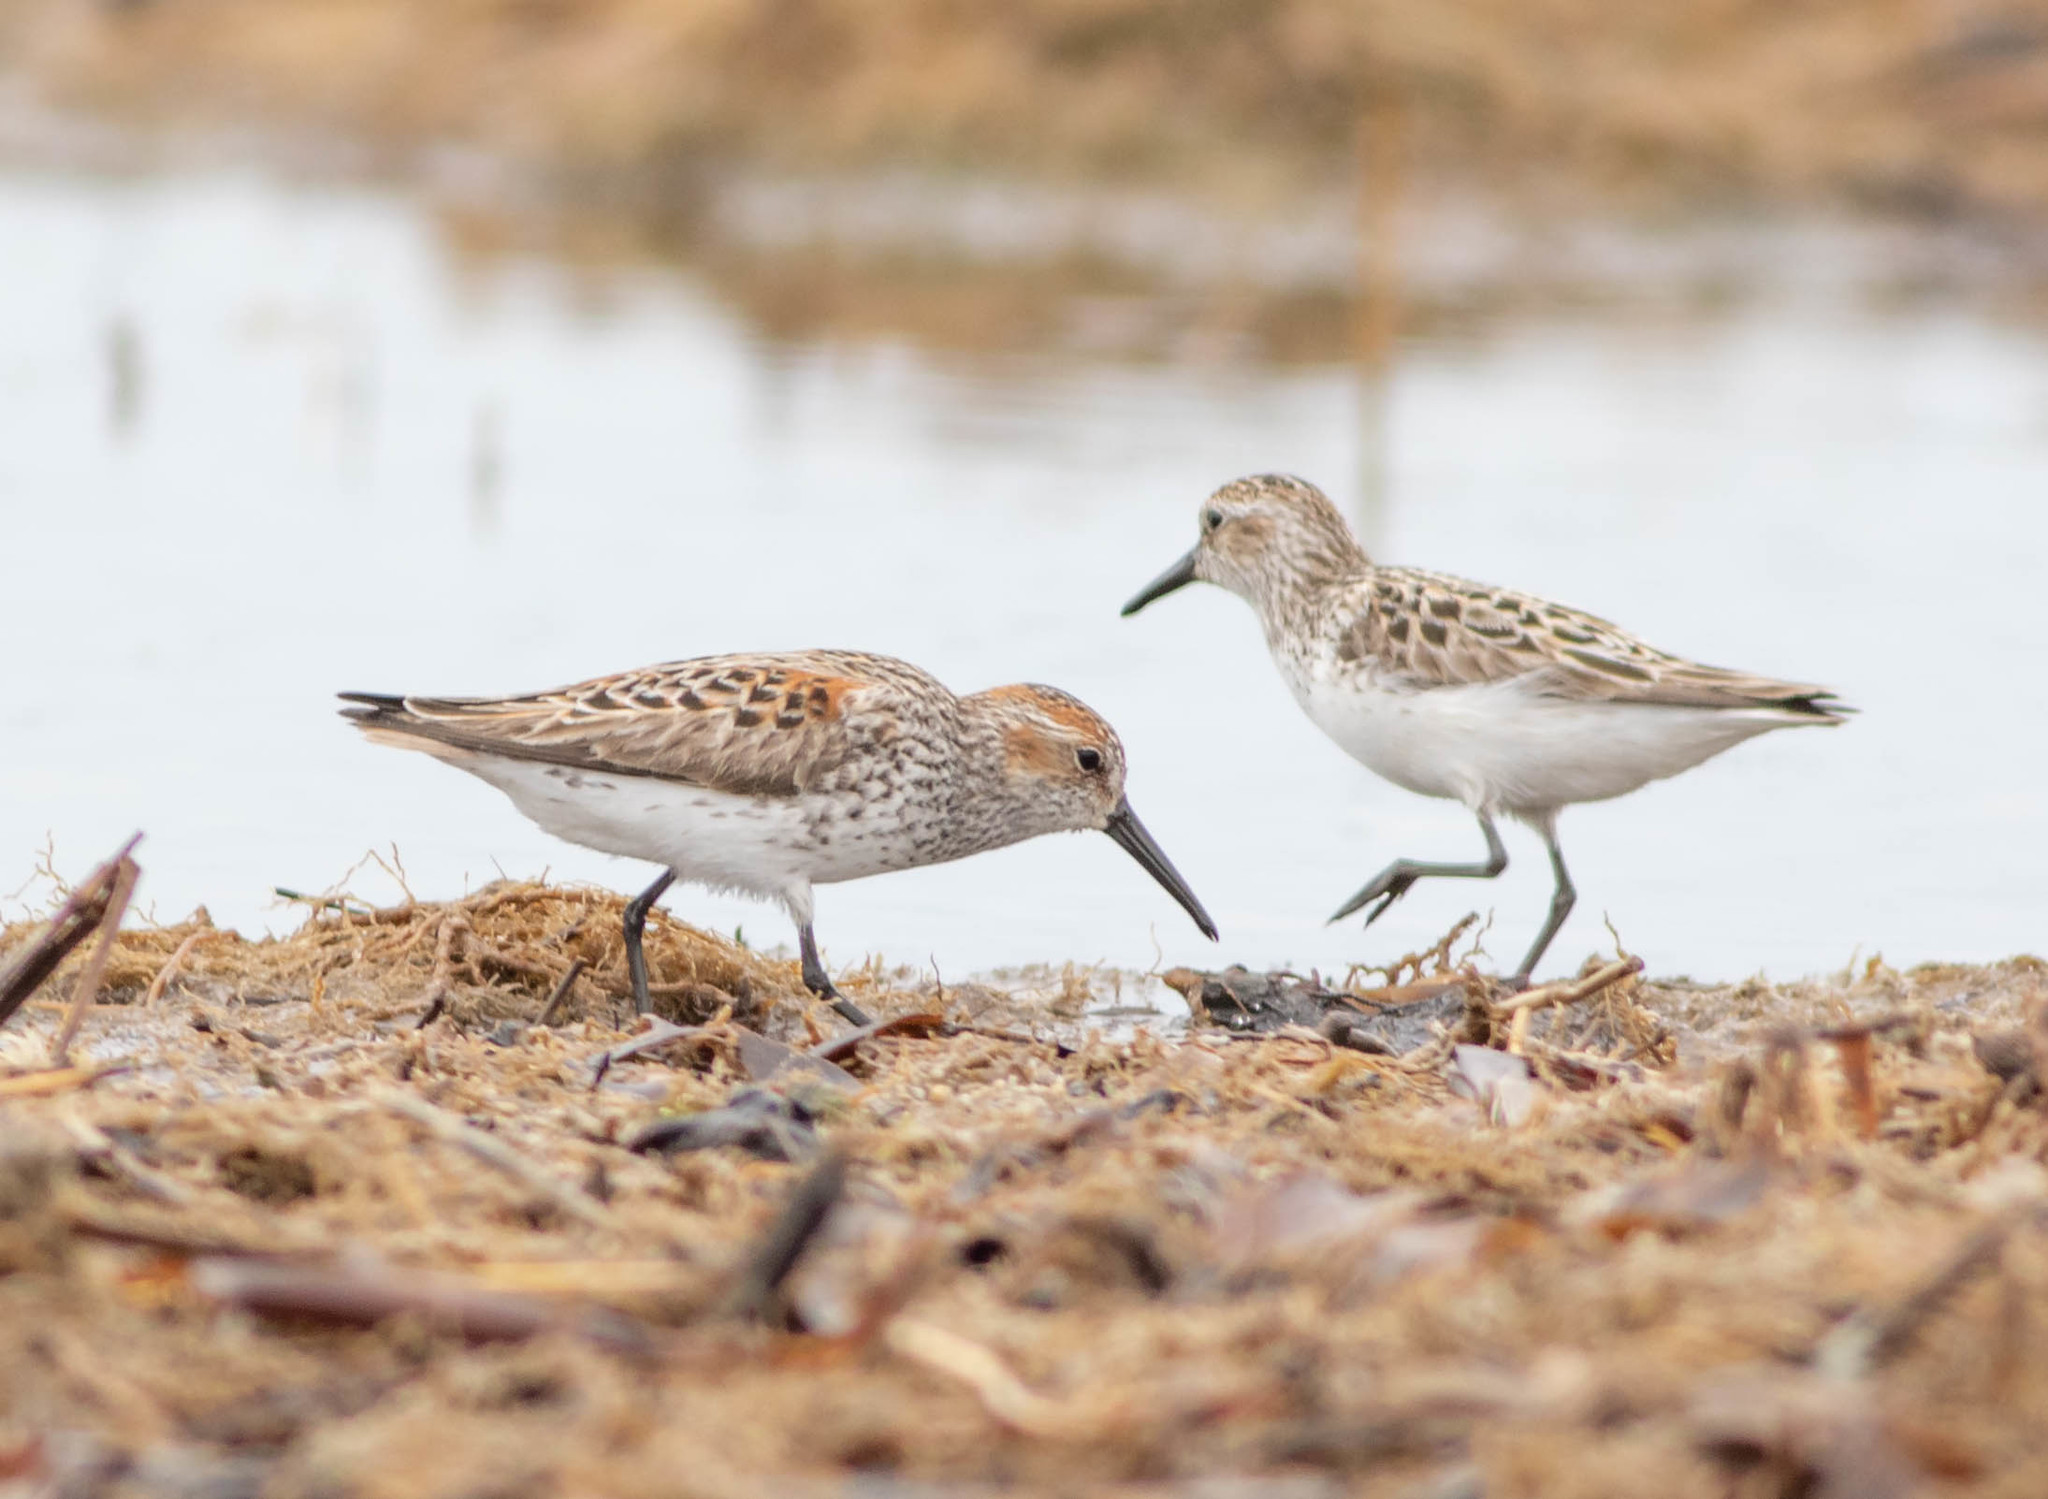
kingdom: Animalia
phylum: Chordata
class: Aves
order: Charadriiformes
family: Scolopacidae
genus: Calidris
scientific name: Calidris mauri
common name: Western sandpiper
